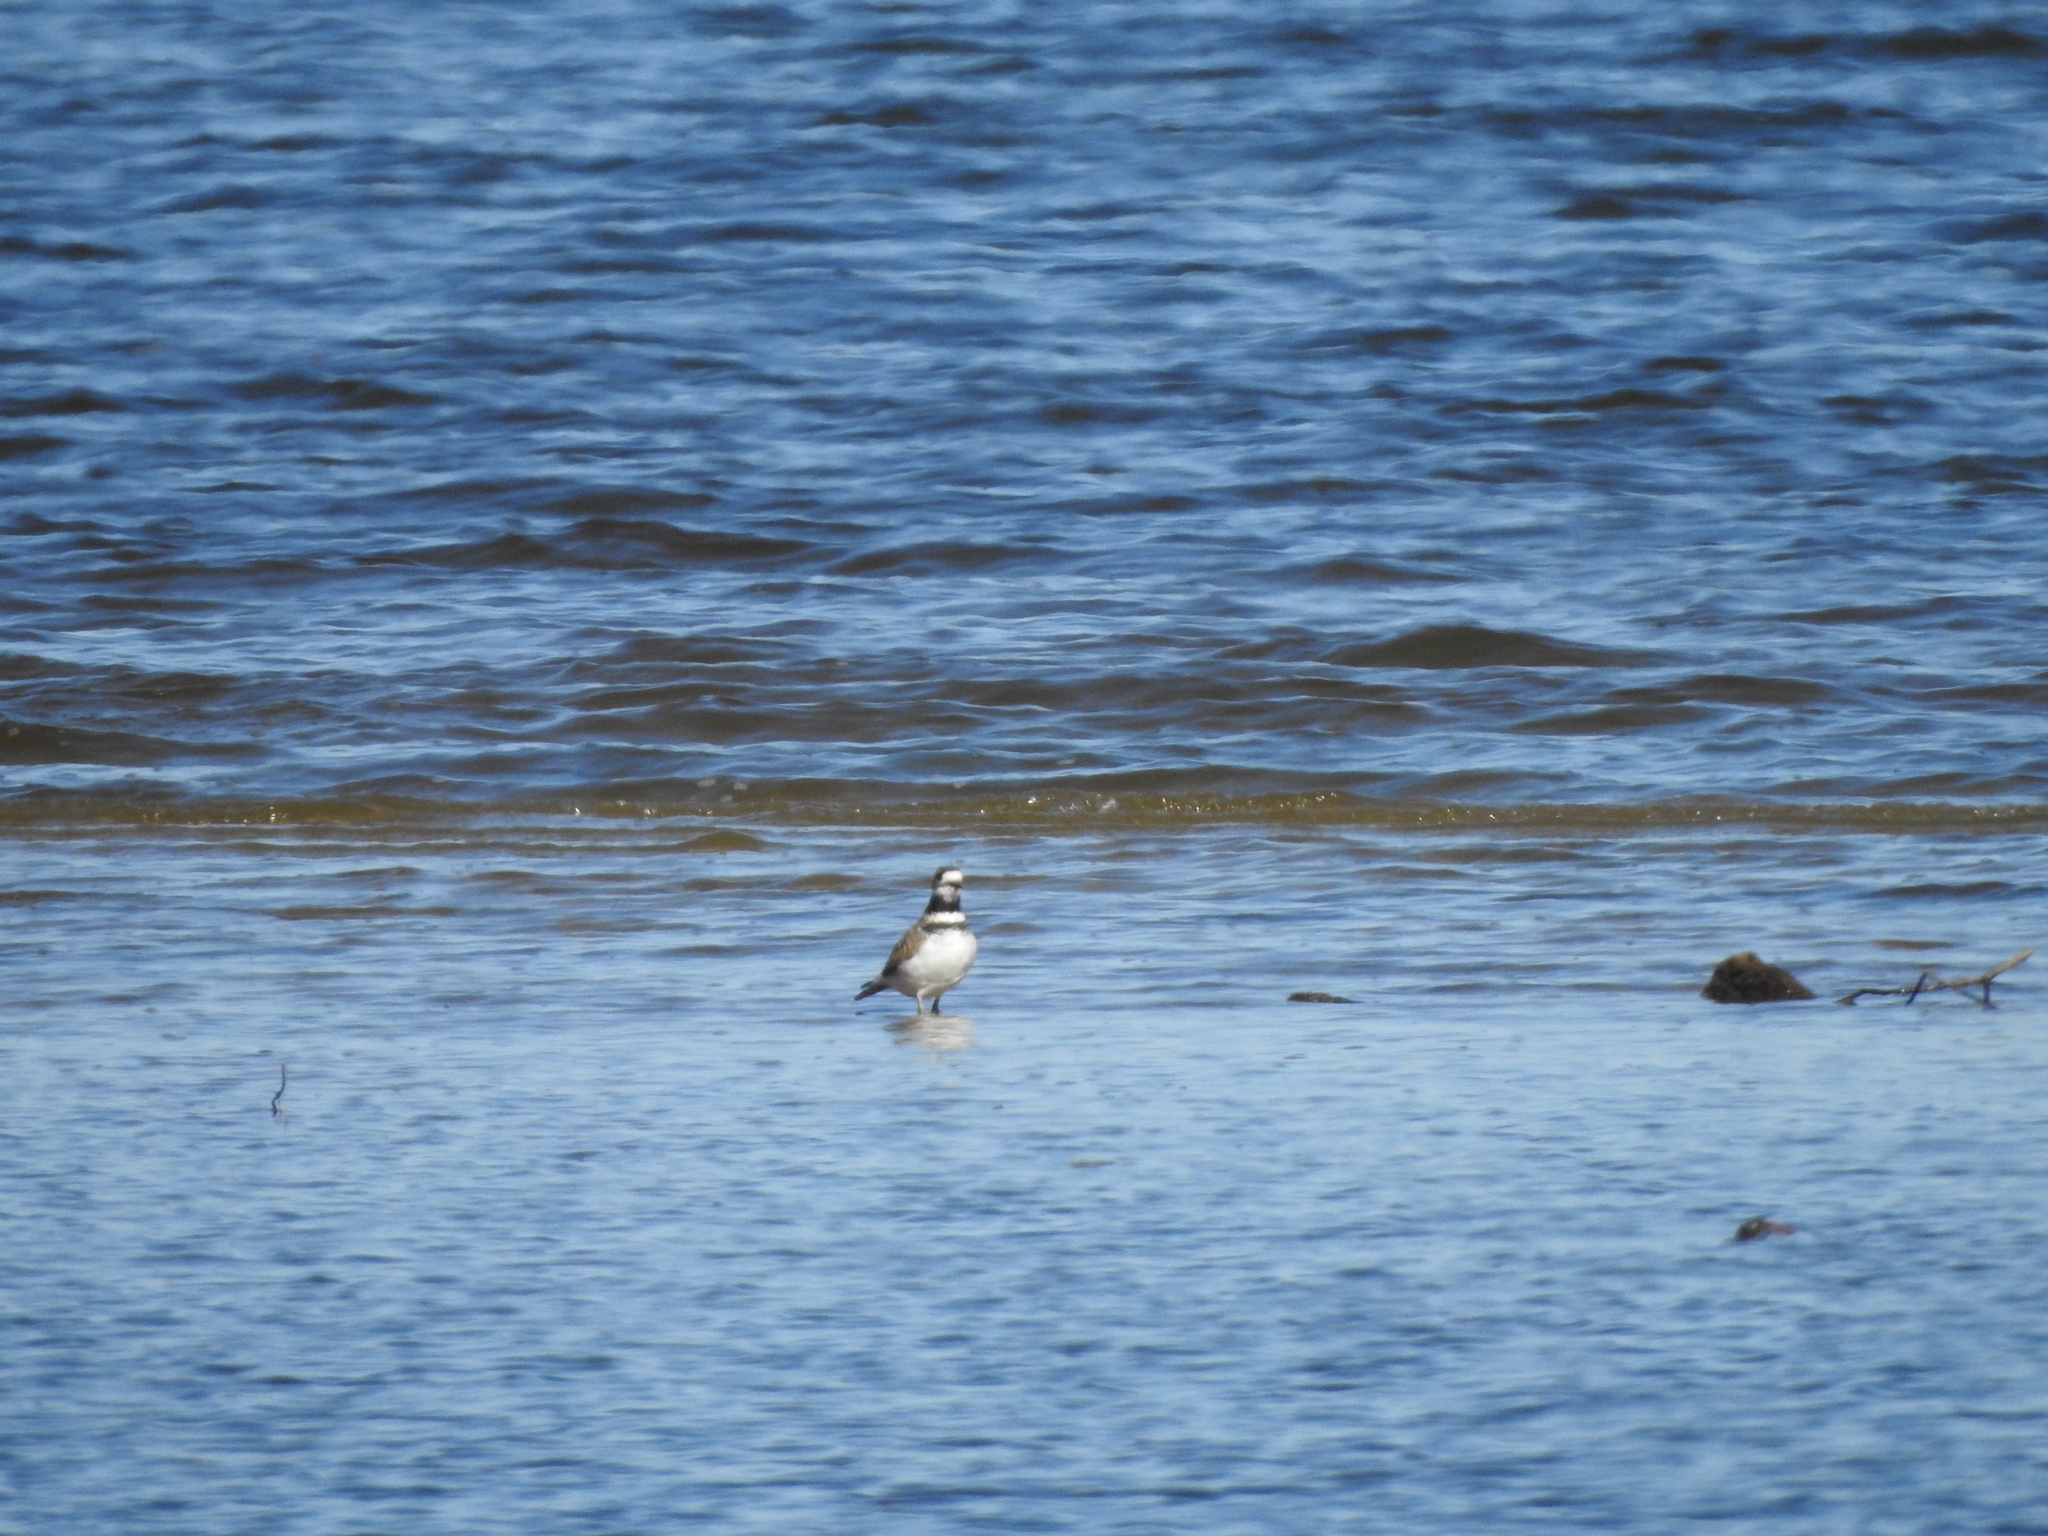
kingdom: Animalia
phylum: Chordata
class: Aves
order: Charadriiformes
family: Charadriidae
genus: Charadrius
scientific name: Charadrius vociferus
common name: Killdeer
